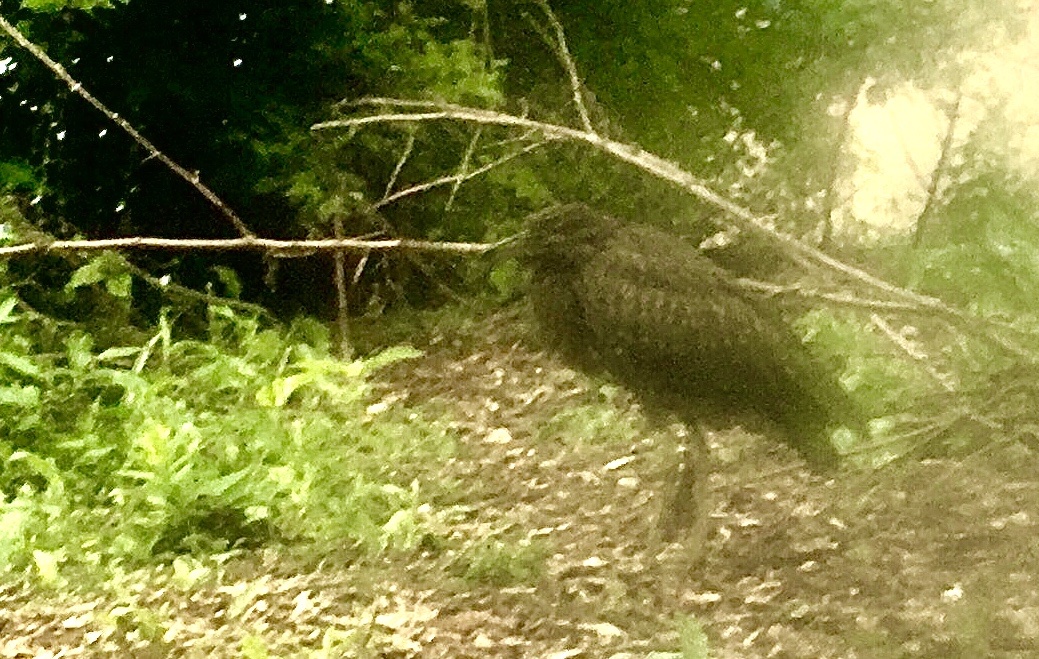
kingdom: Animalia
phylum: Chordata
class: Aves
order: Pelecaniformes
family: Ardeidae
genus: Nycticorax
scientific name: Nycticorax nycticorax
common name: Black-crowned night heron
